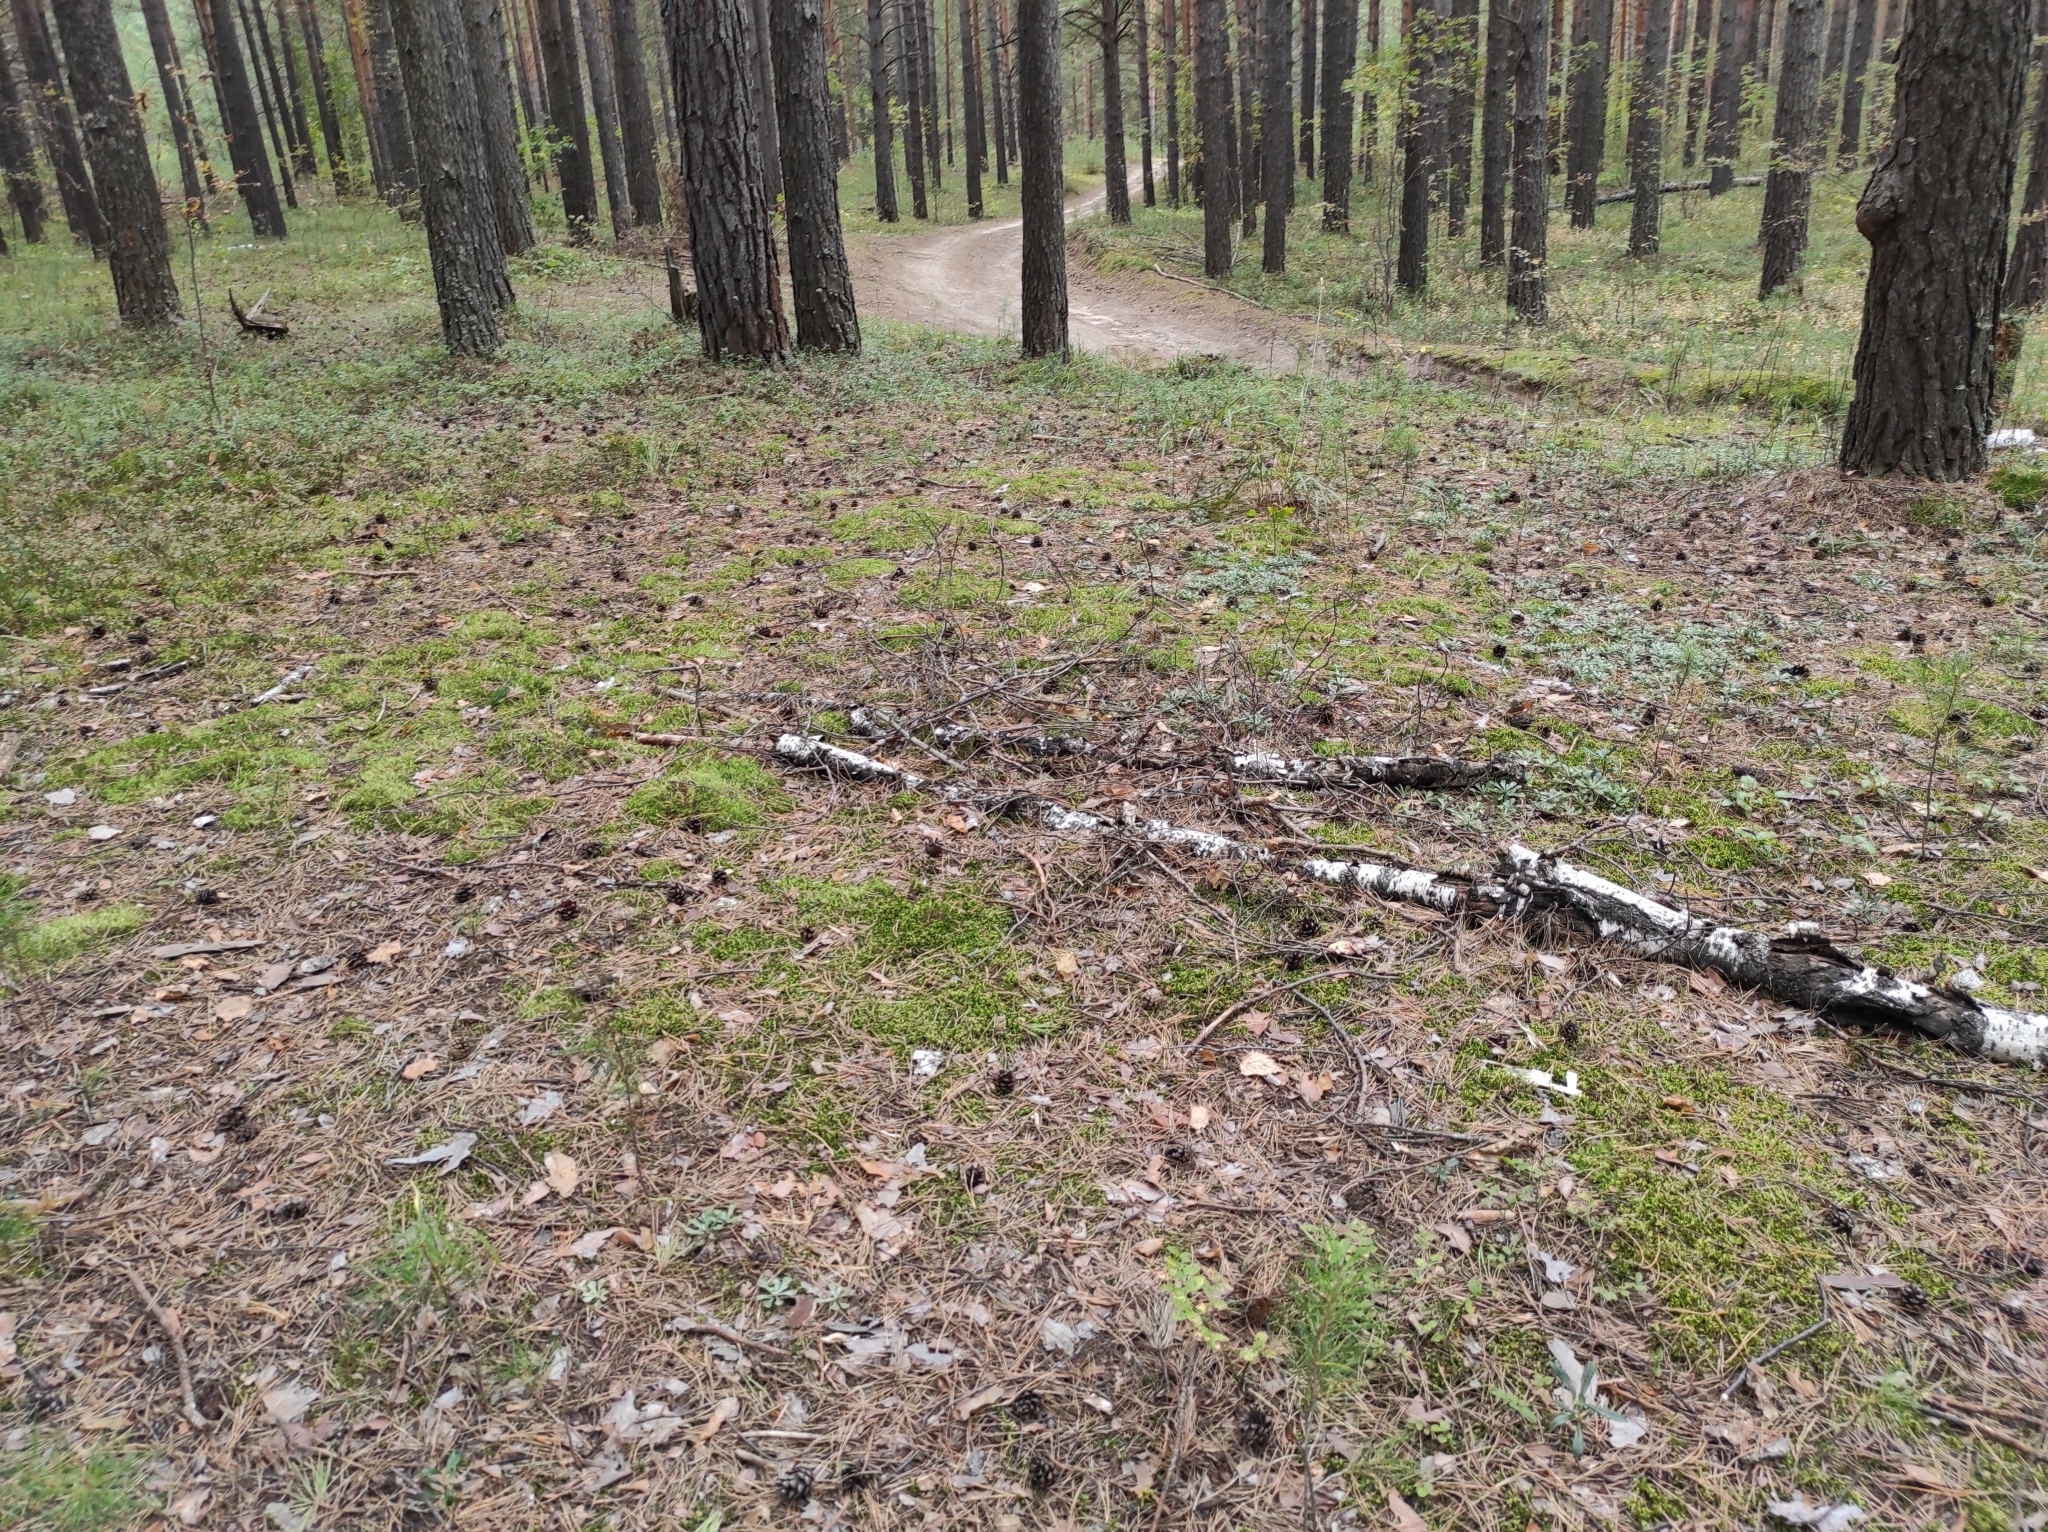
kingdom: Plantae
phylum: Tracheophyta
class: Pinopsida
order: Pinales
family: Pinaceae
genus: Pinus
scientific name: Pinus sylvestris
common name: Scots pine
